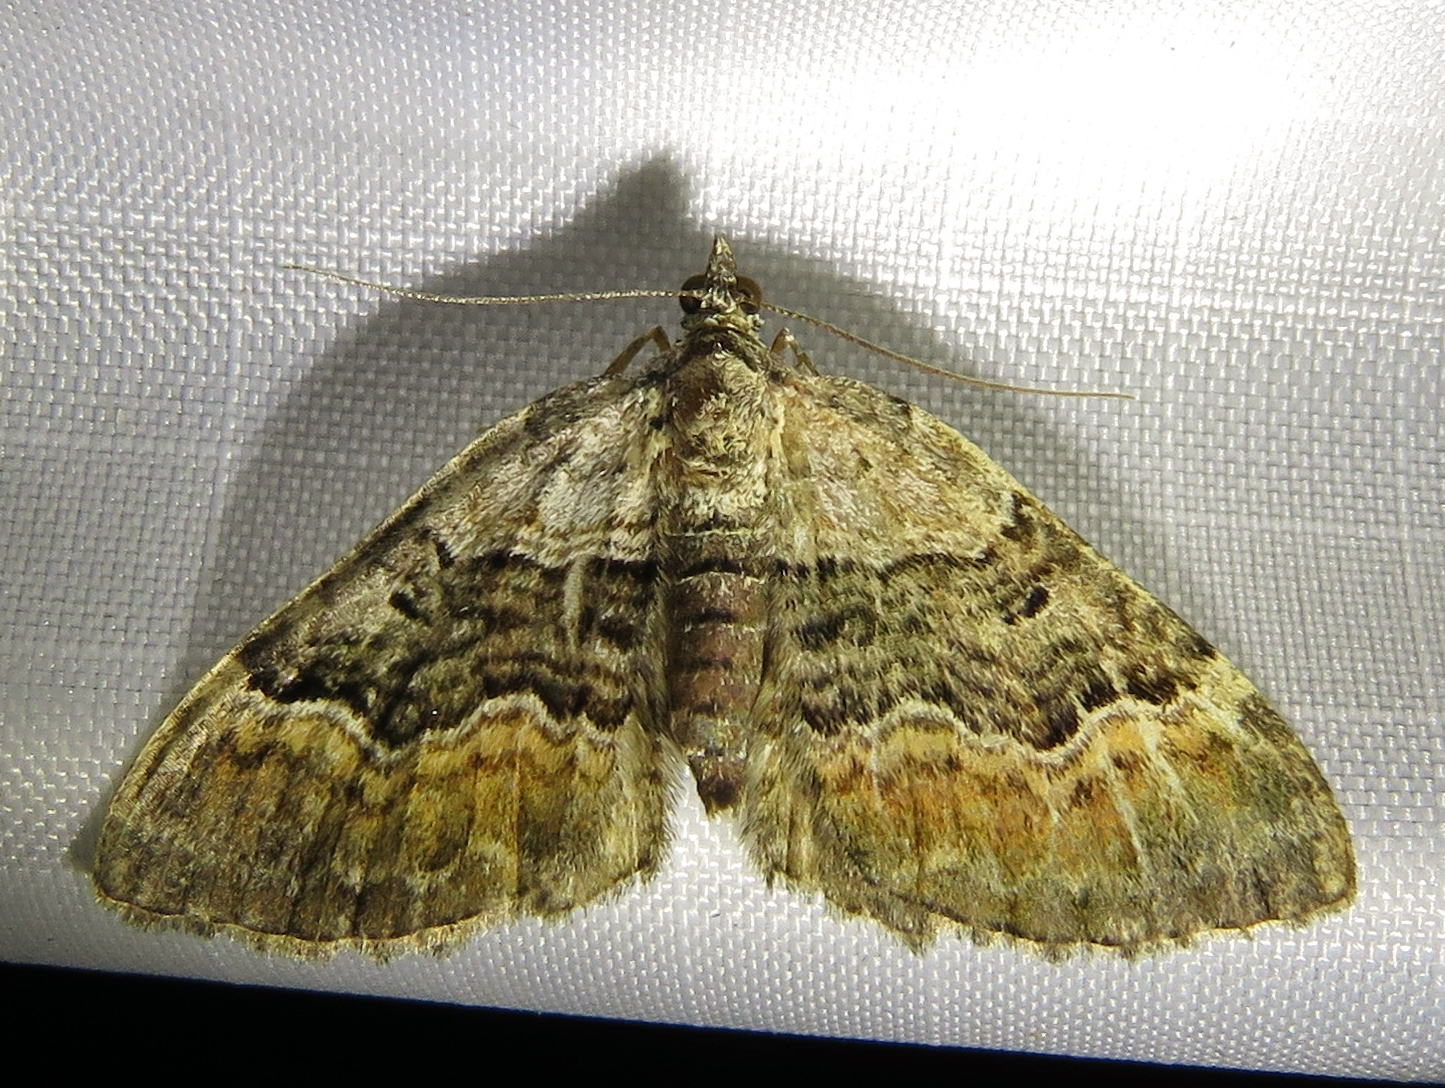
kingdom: Animalia
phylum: Arthropoda
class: Insecta
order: Lepidoptera
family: Geometridae
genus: Xanthorhoe
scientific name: Xanthorhoe quadrifasiata
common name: Large twin-spot carpet
